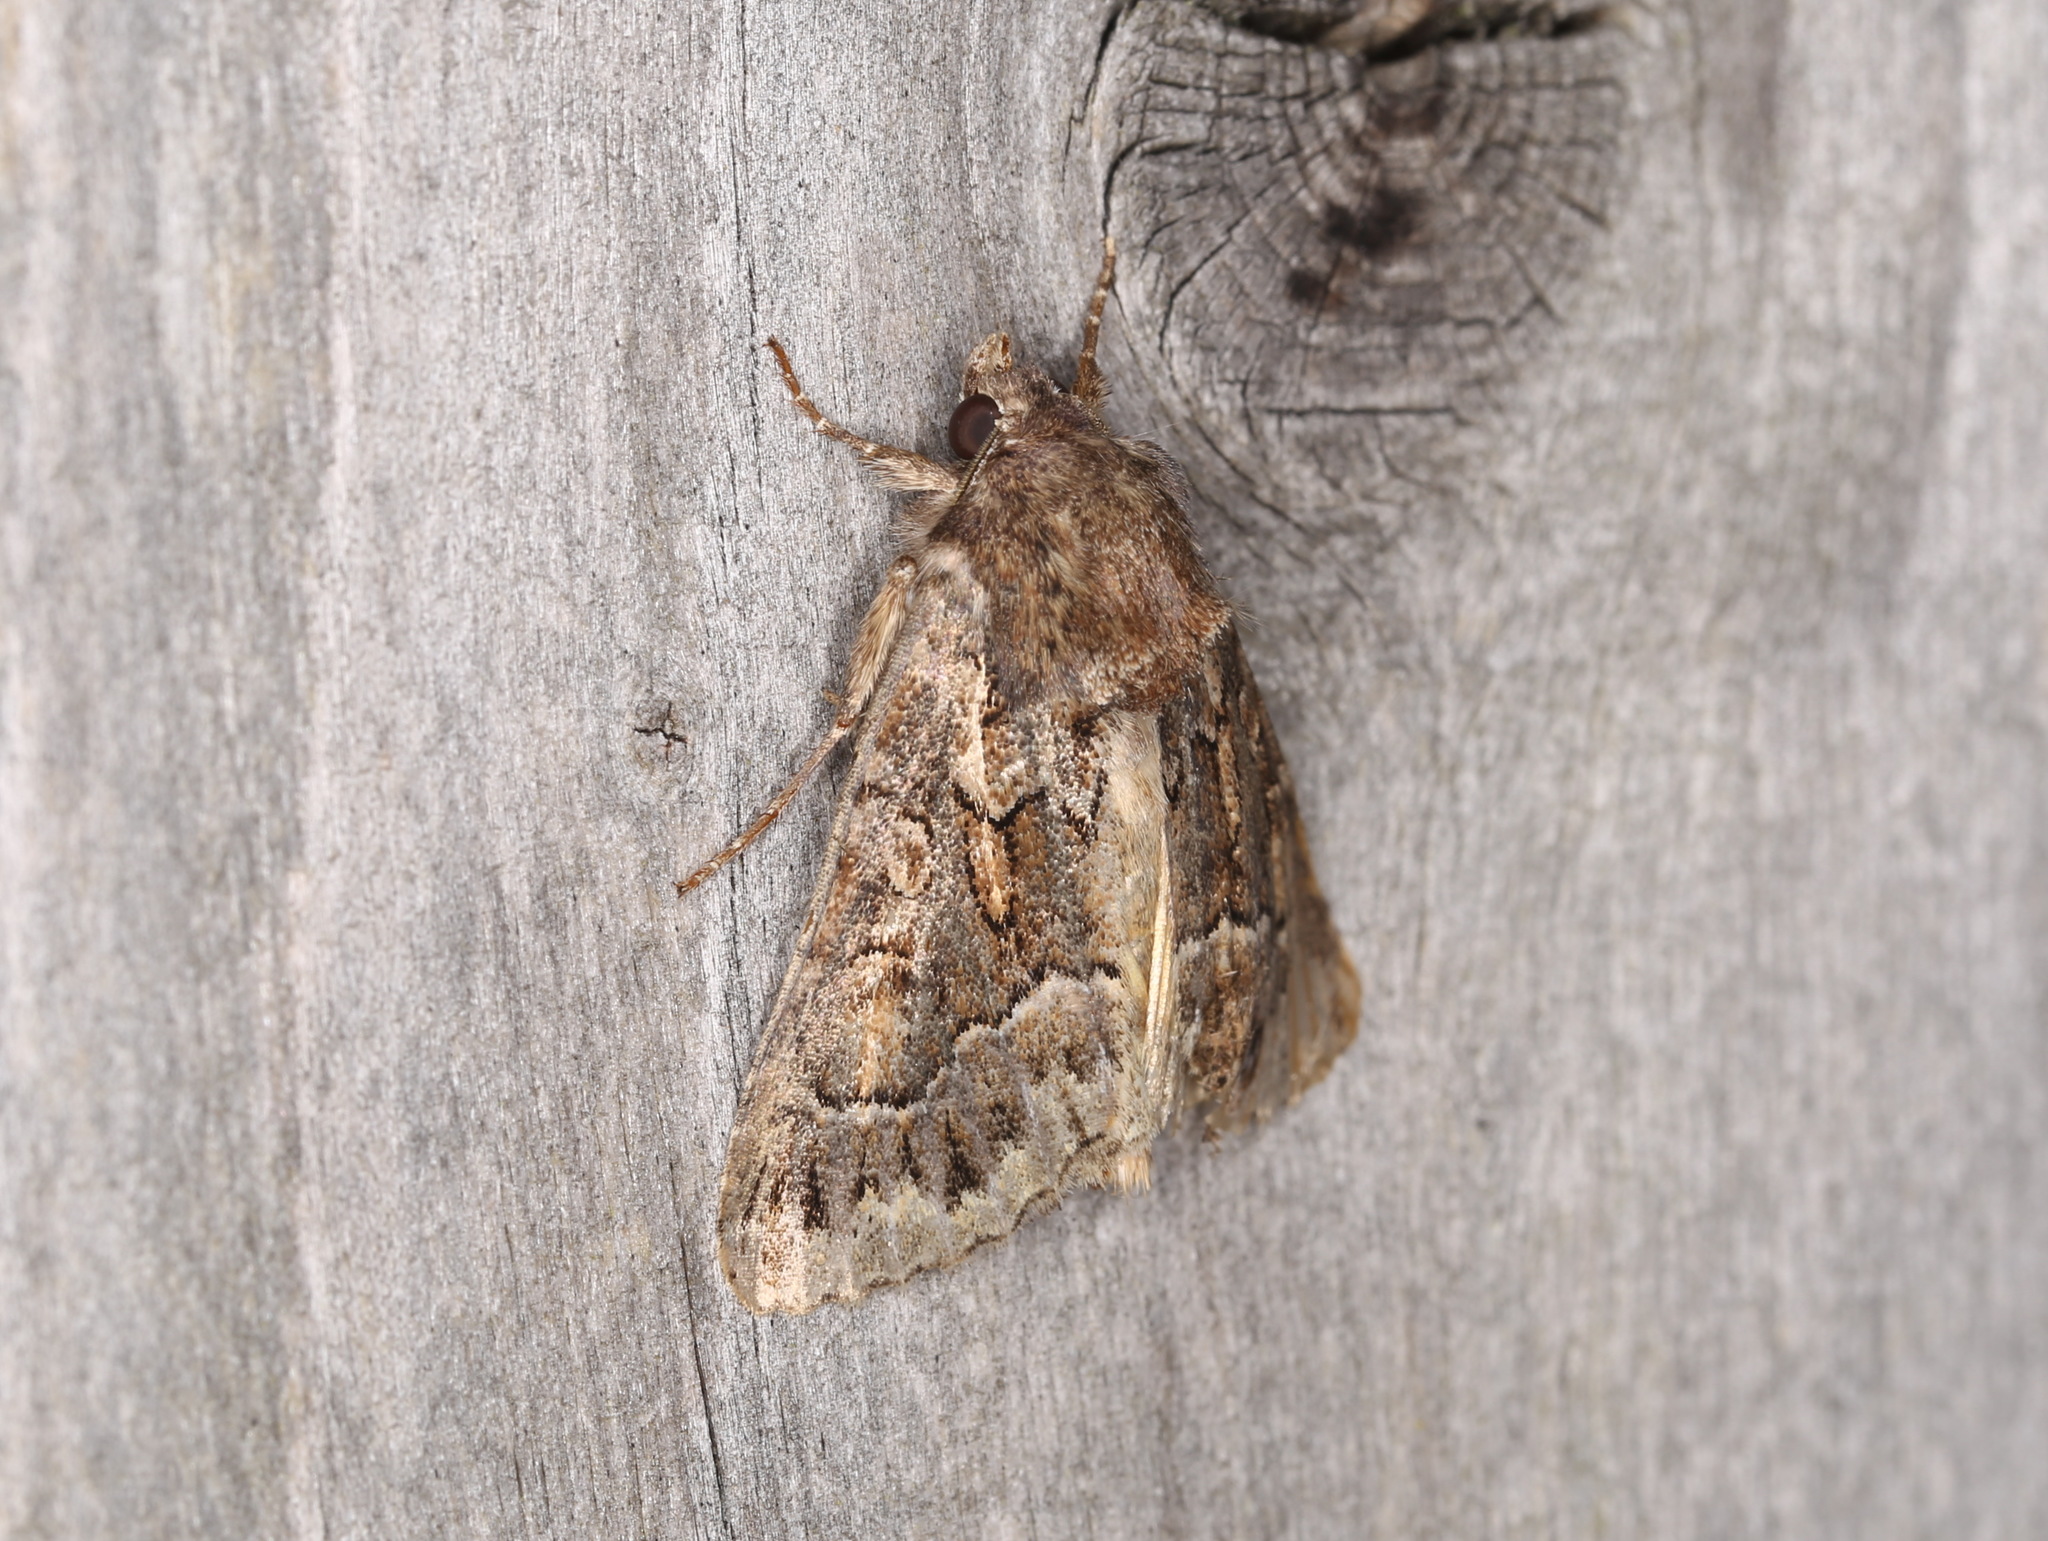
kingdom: Animalia
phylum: Arthropoda
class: Insecta
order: Lepidoptera
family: Noctuidae
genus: Thalpophila
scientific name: Thalpophila matura
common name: Straw underwing
